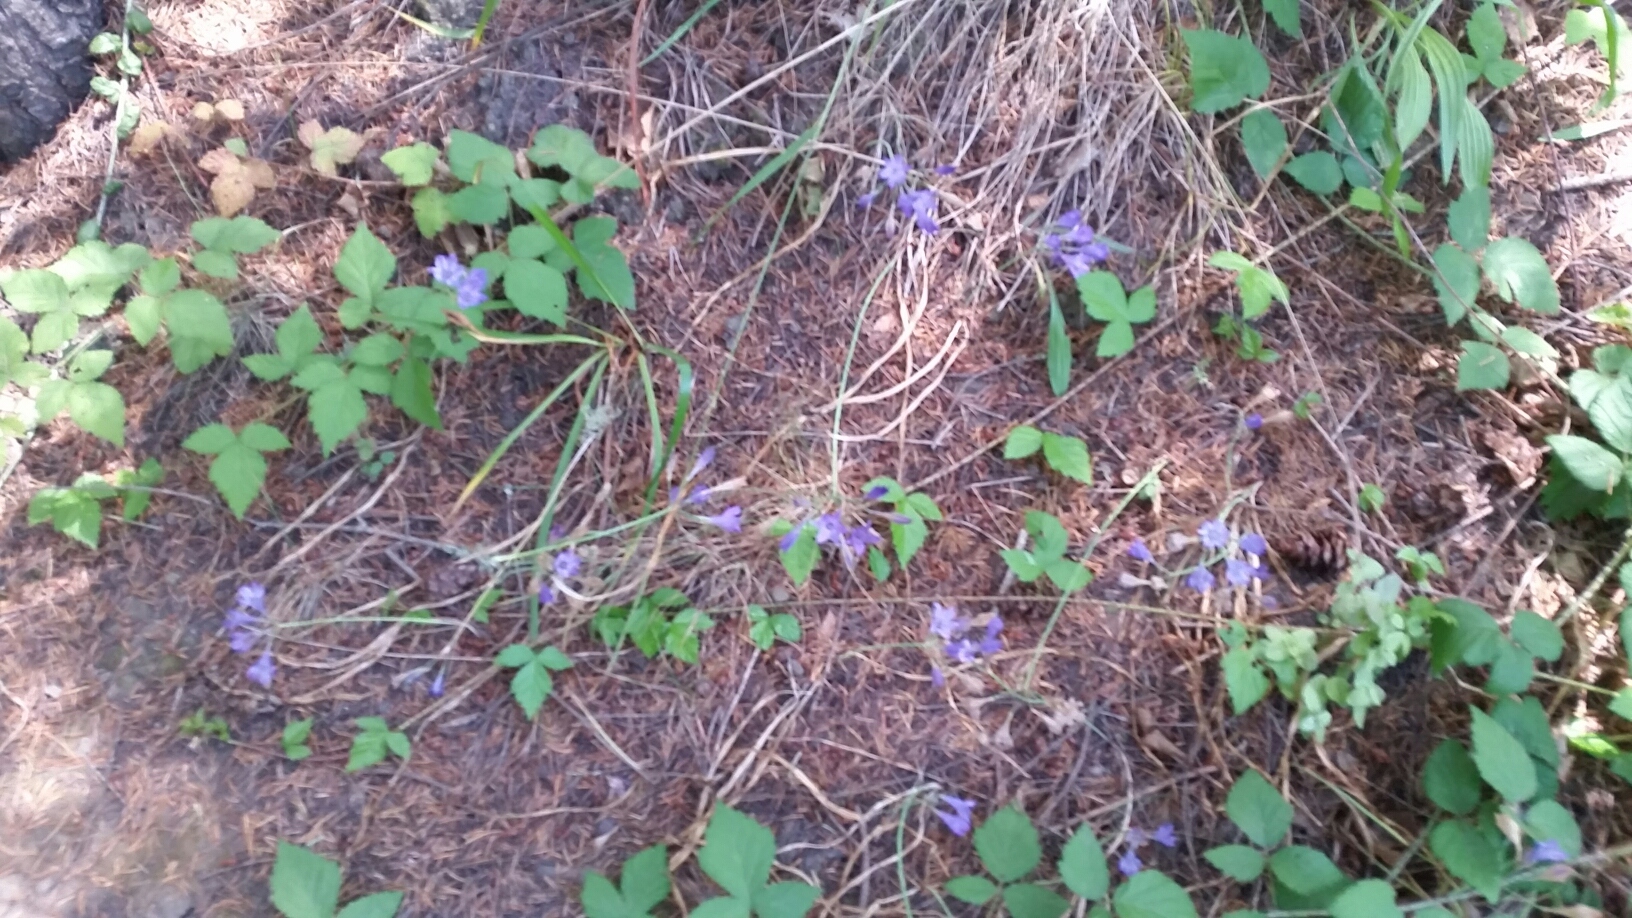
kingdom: Plantae
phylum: Tracheophyta
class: Liliopsida
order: Asparagales
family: Asparagaceae
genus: Triteleia
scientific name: Triteleia laxa
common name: Triplet-lily
